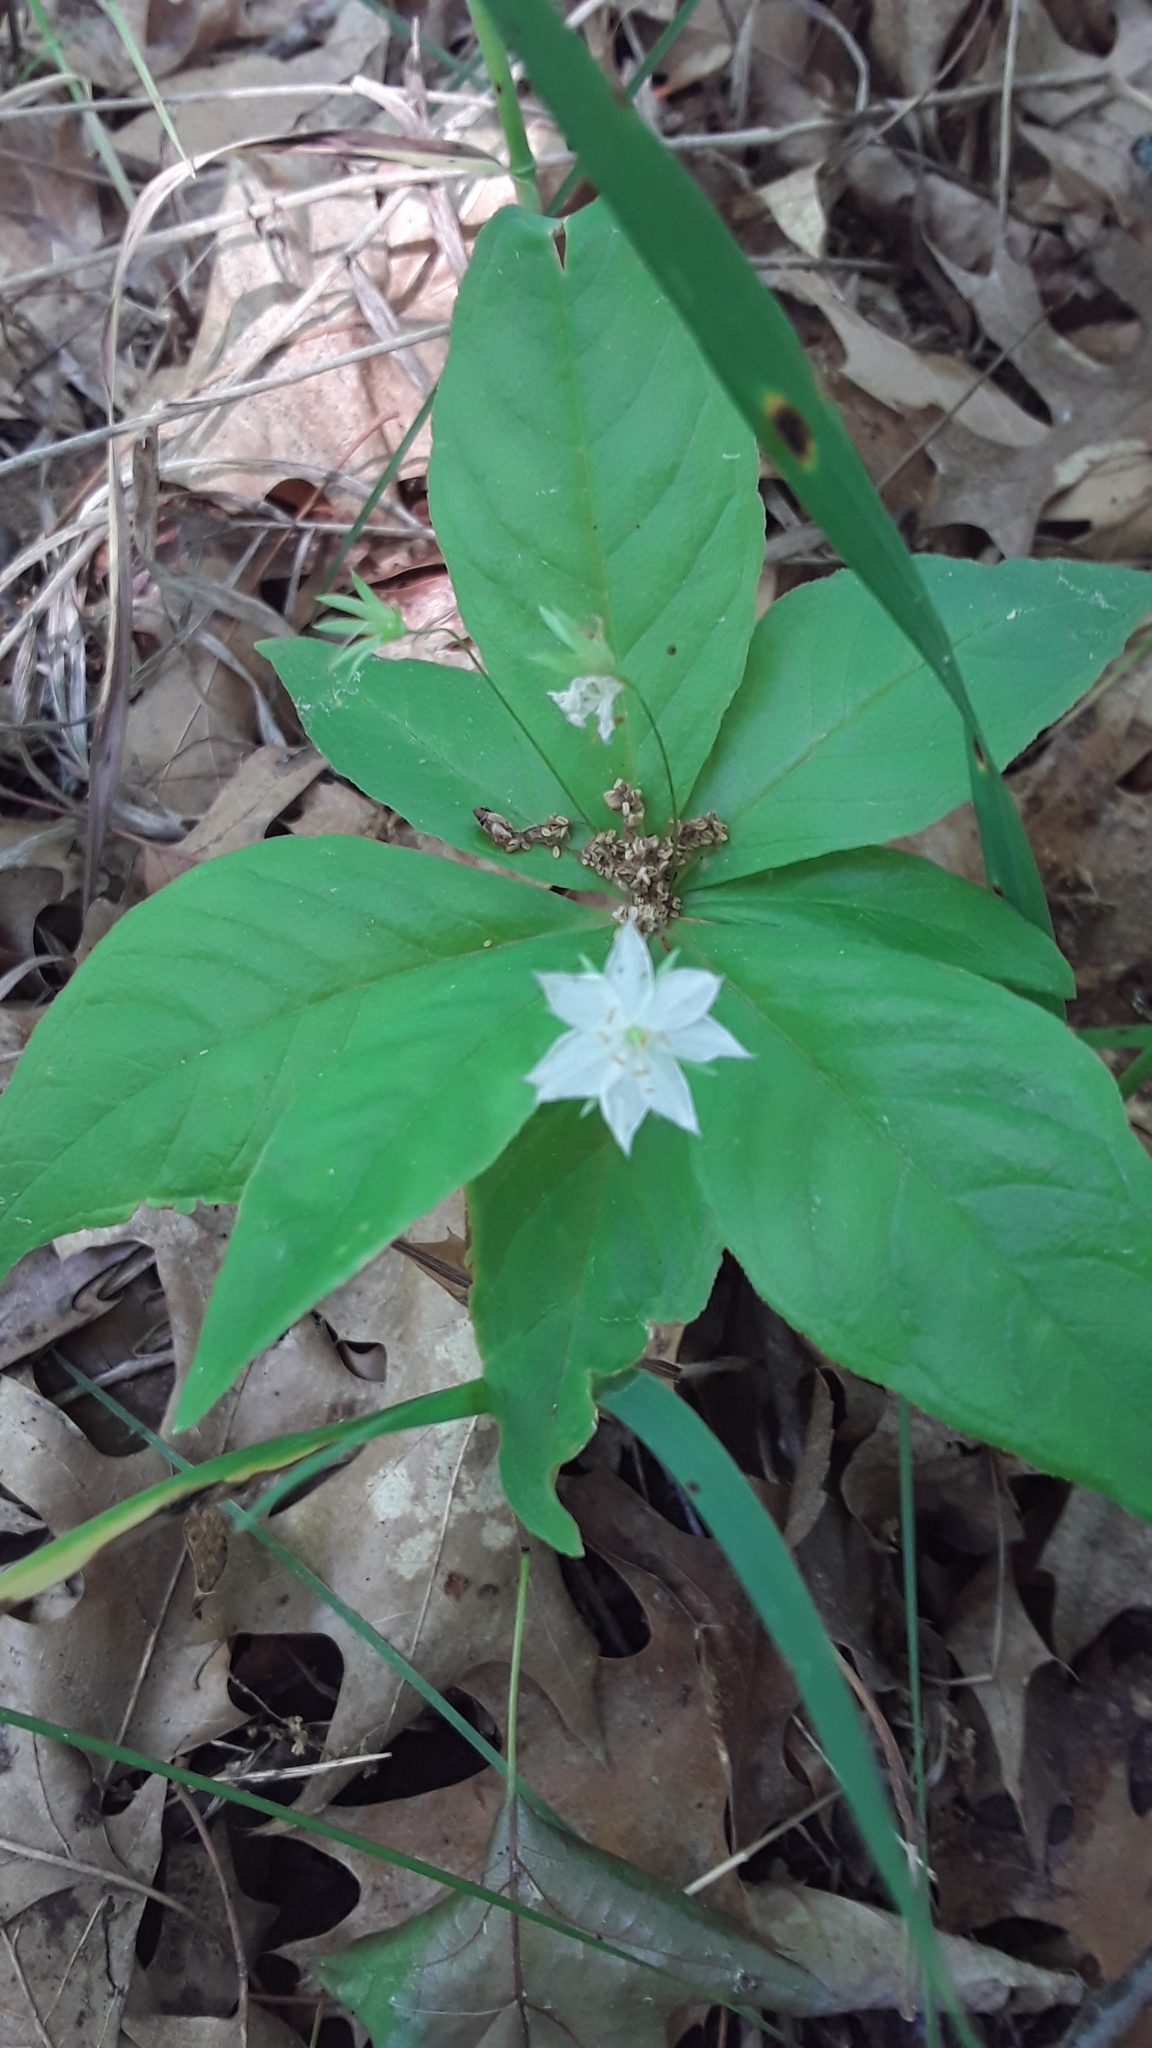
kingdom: Plantae
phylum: Tracheophyta
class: Magnoliopsida
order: Ericales
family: Primulaceae
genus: Lysimachia
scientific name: Lysimachia borealis
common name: American starflower
